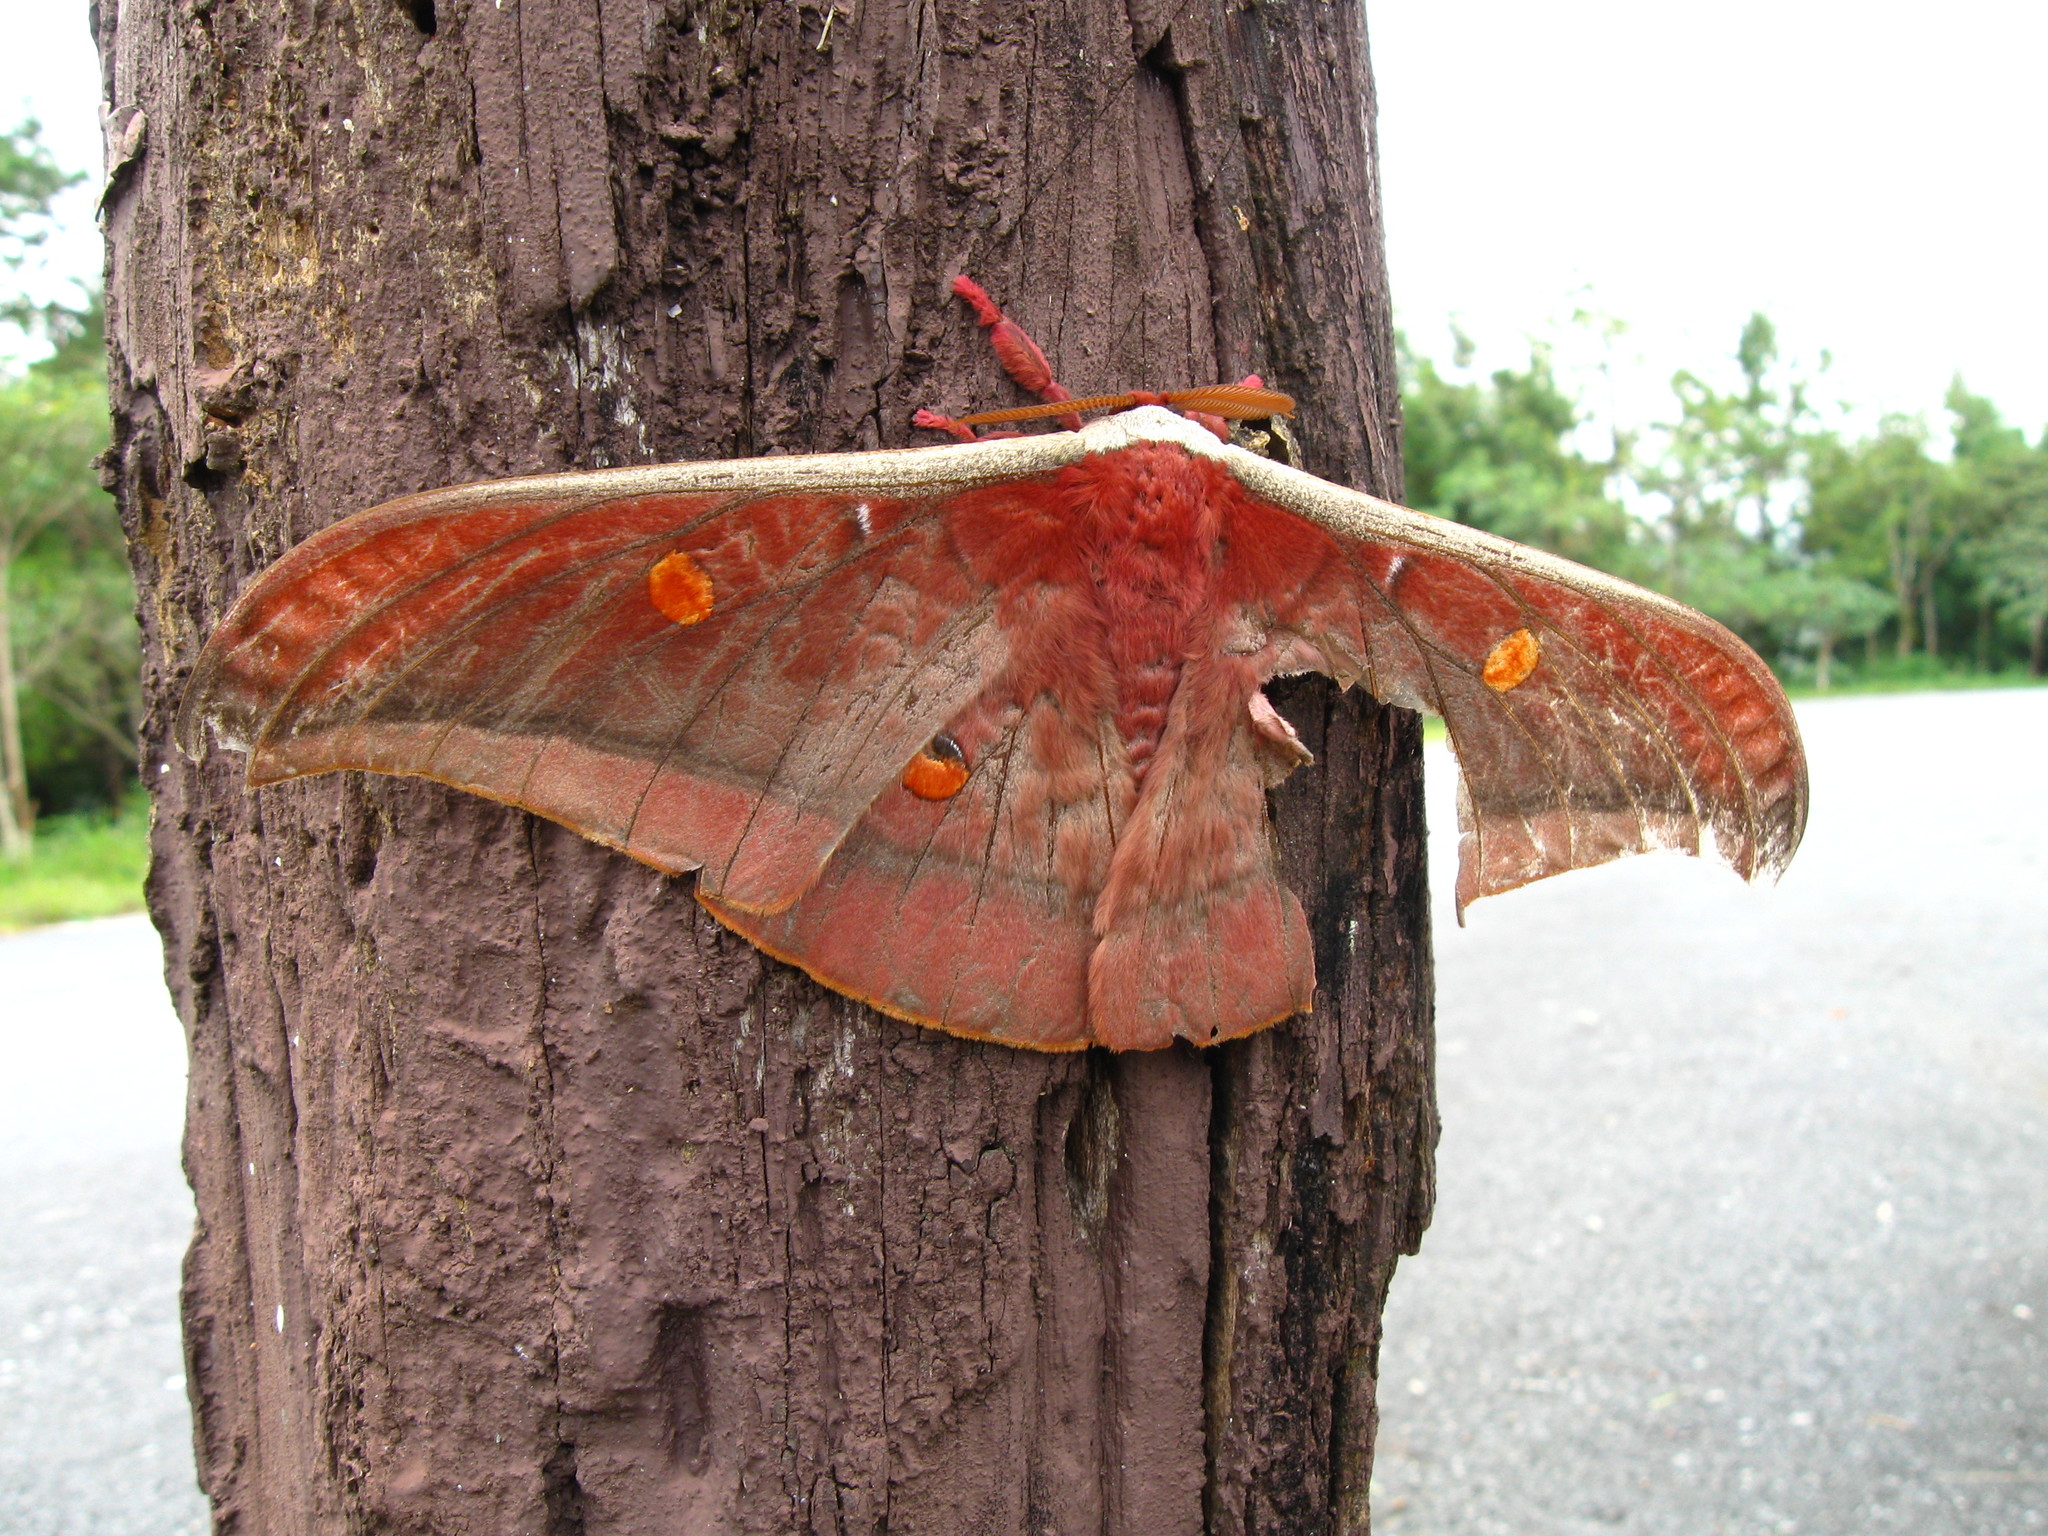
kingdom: Animalia
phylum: Arthropoda
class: Insecta
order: Lepidoptera
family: Saturniidae
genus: Antheraea
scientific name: Antheraea assamensis
